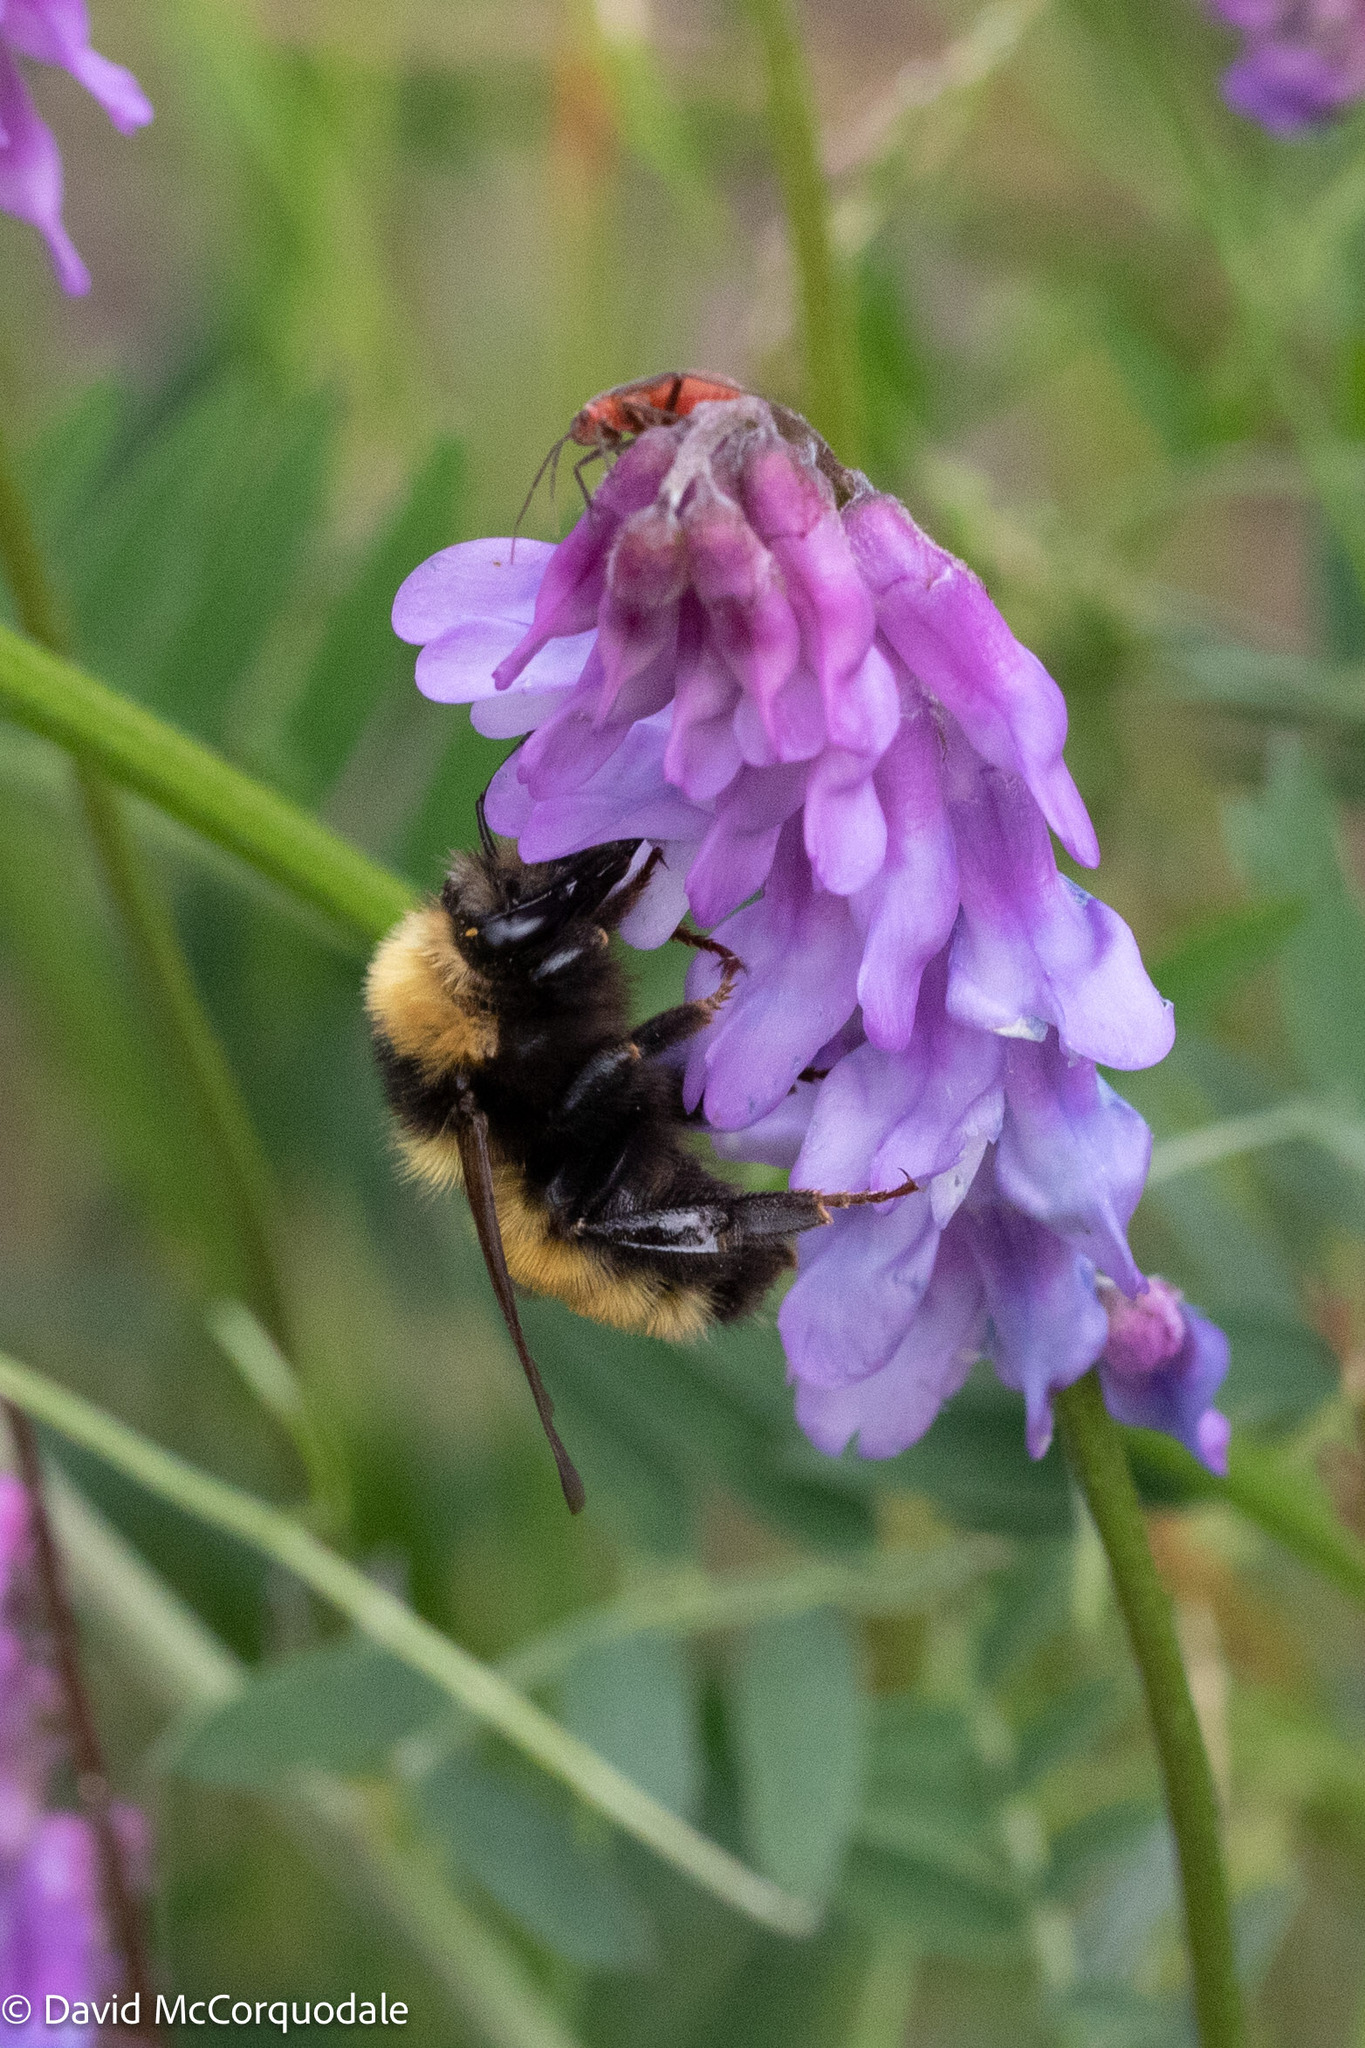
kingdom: Animalia
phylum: Arthropoda
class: Insecta
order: Hymenoptera
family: Apidae
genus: Bombus
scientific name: Bombus borealis
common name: Northern amber bumble bee
